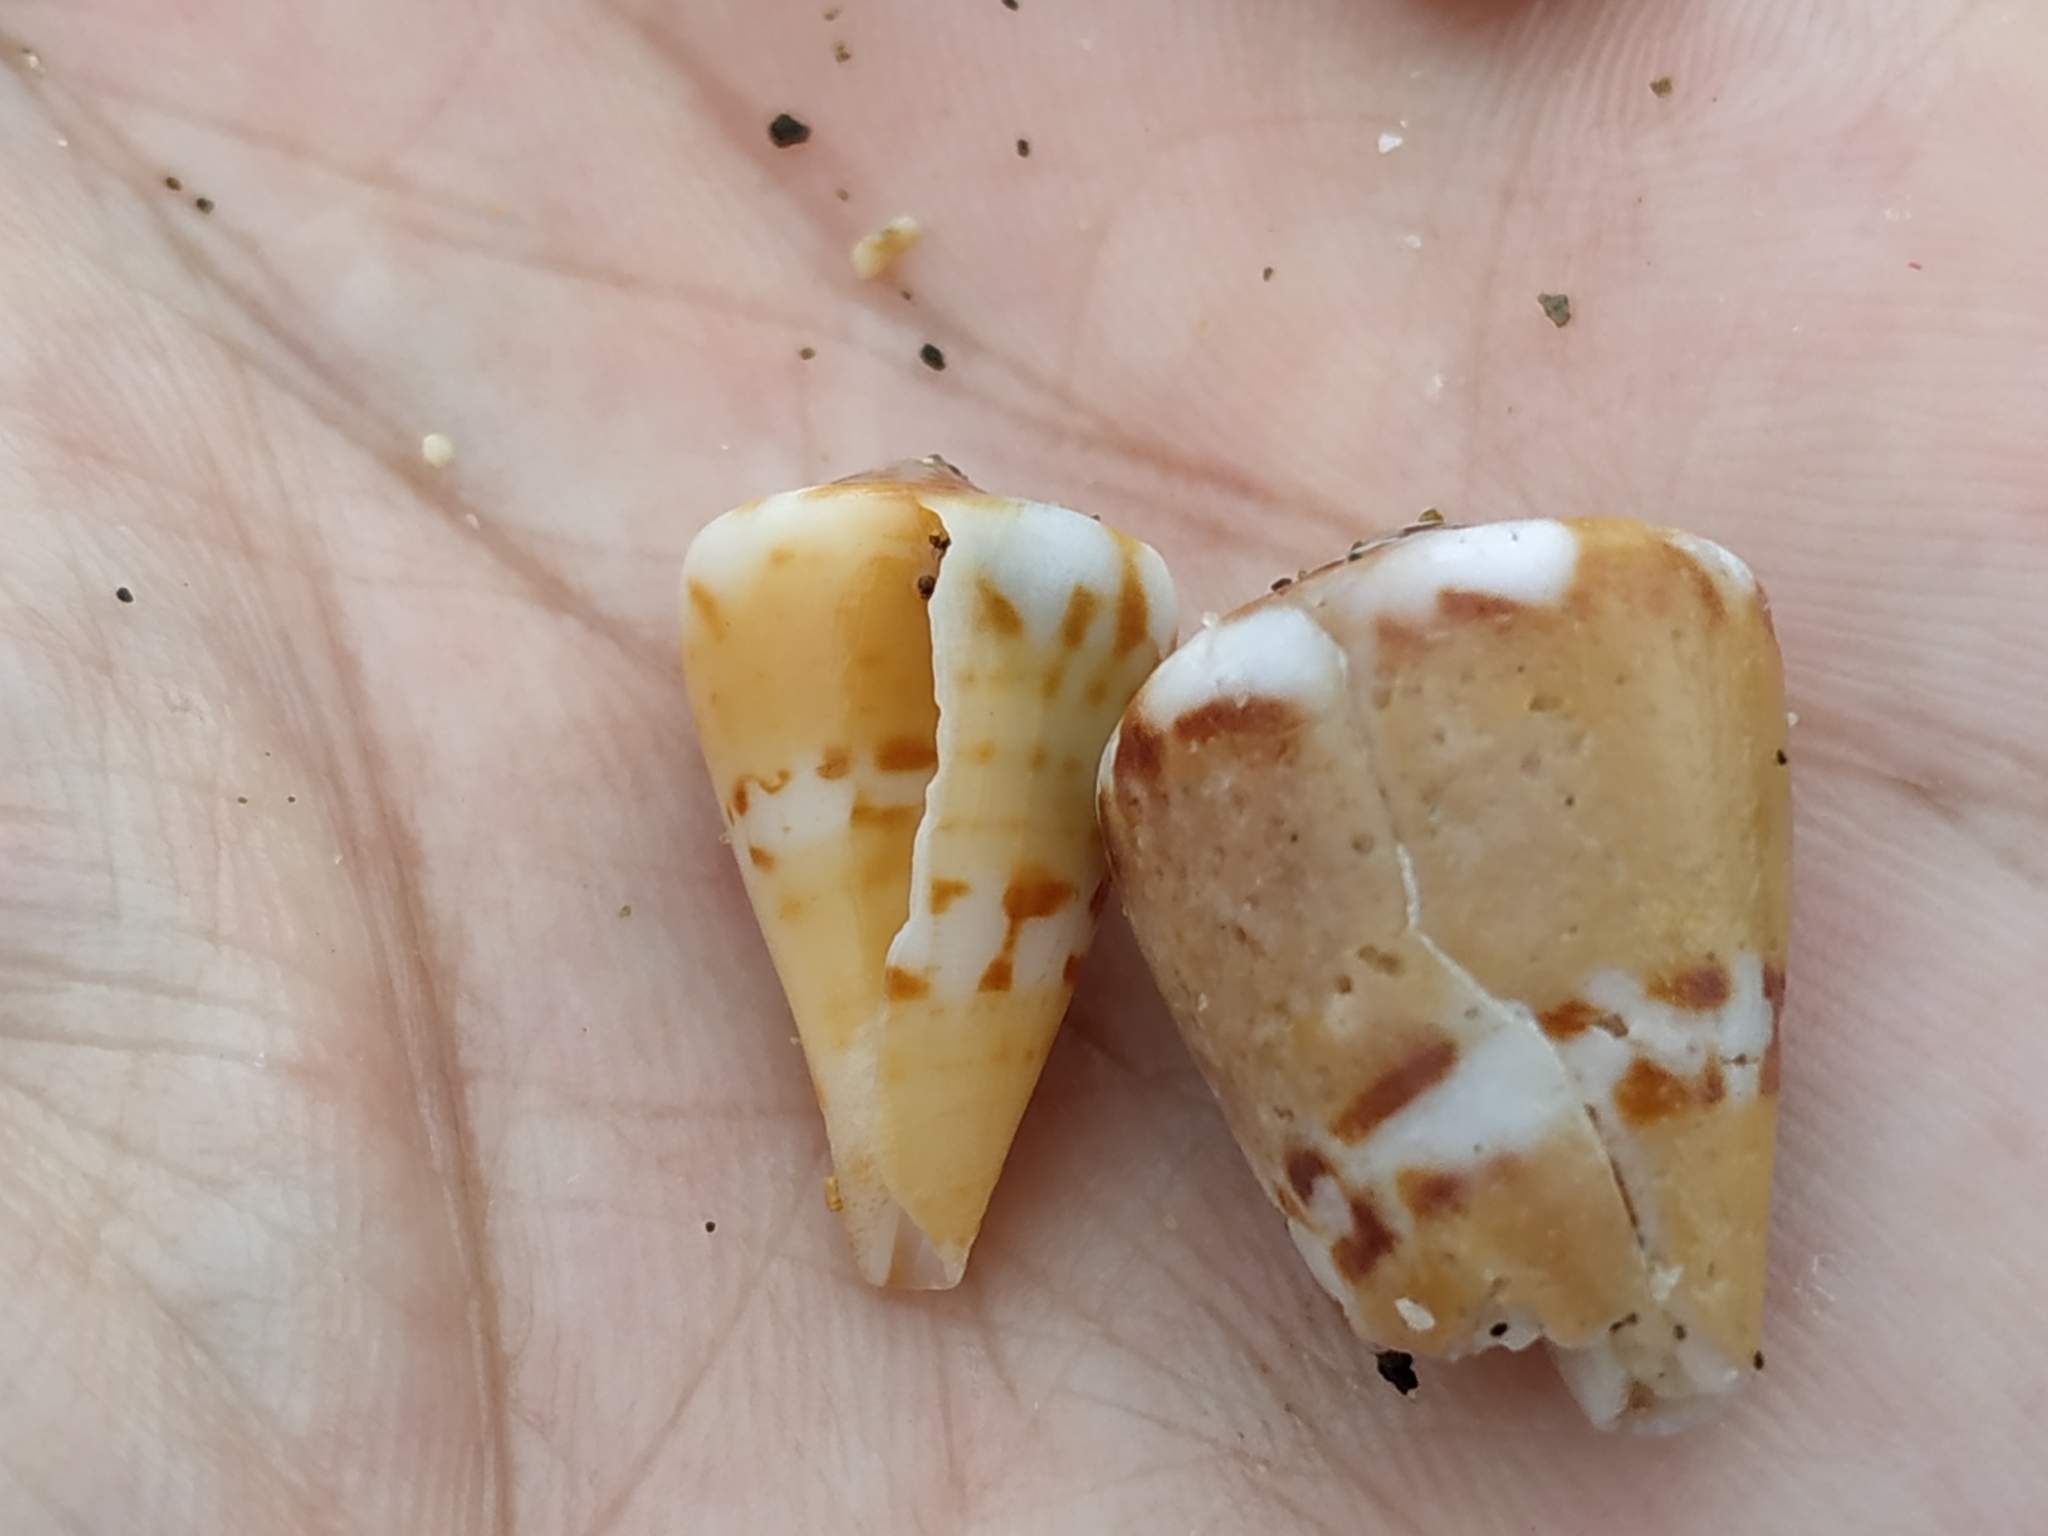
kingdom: Animalia
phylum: Mollusca
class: Gastropoda
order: Neogastropoda
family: Conidae
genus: Conus
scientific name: Conus capitaneus
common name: Captain cone
